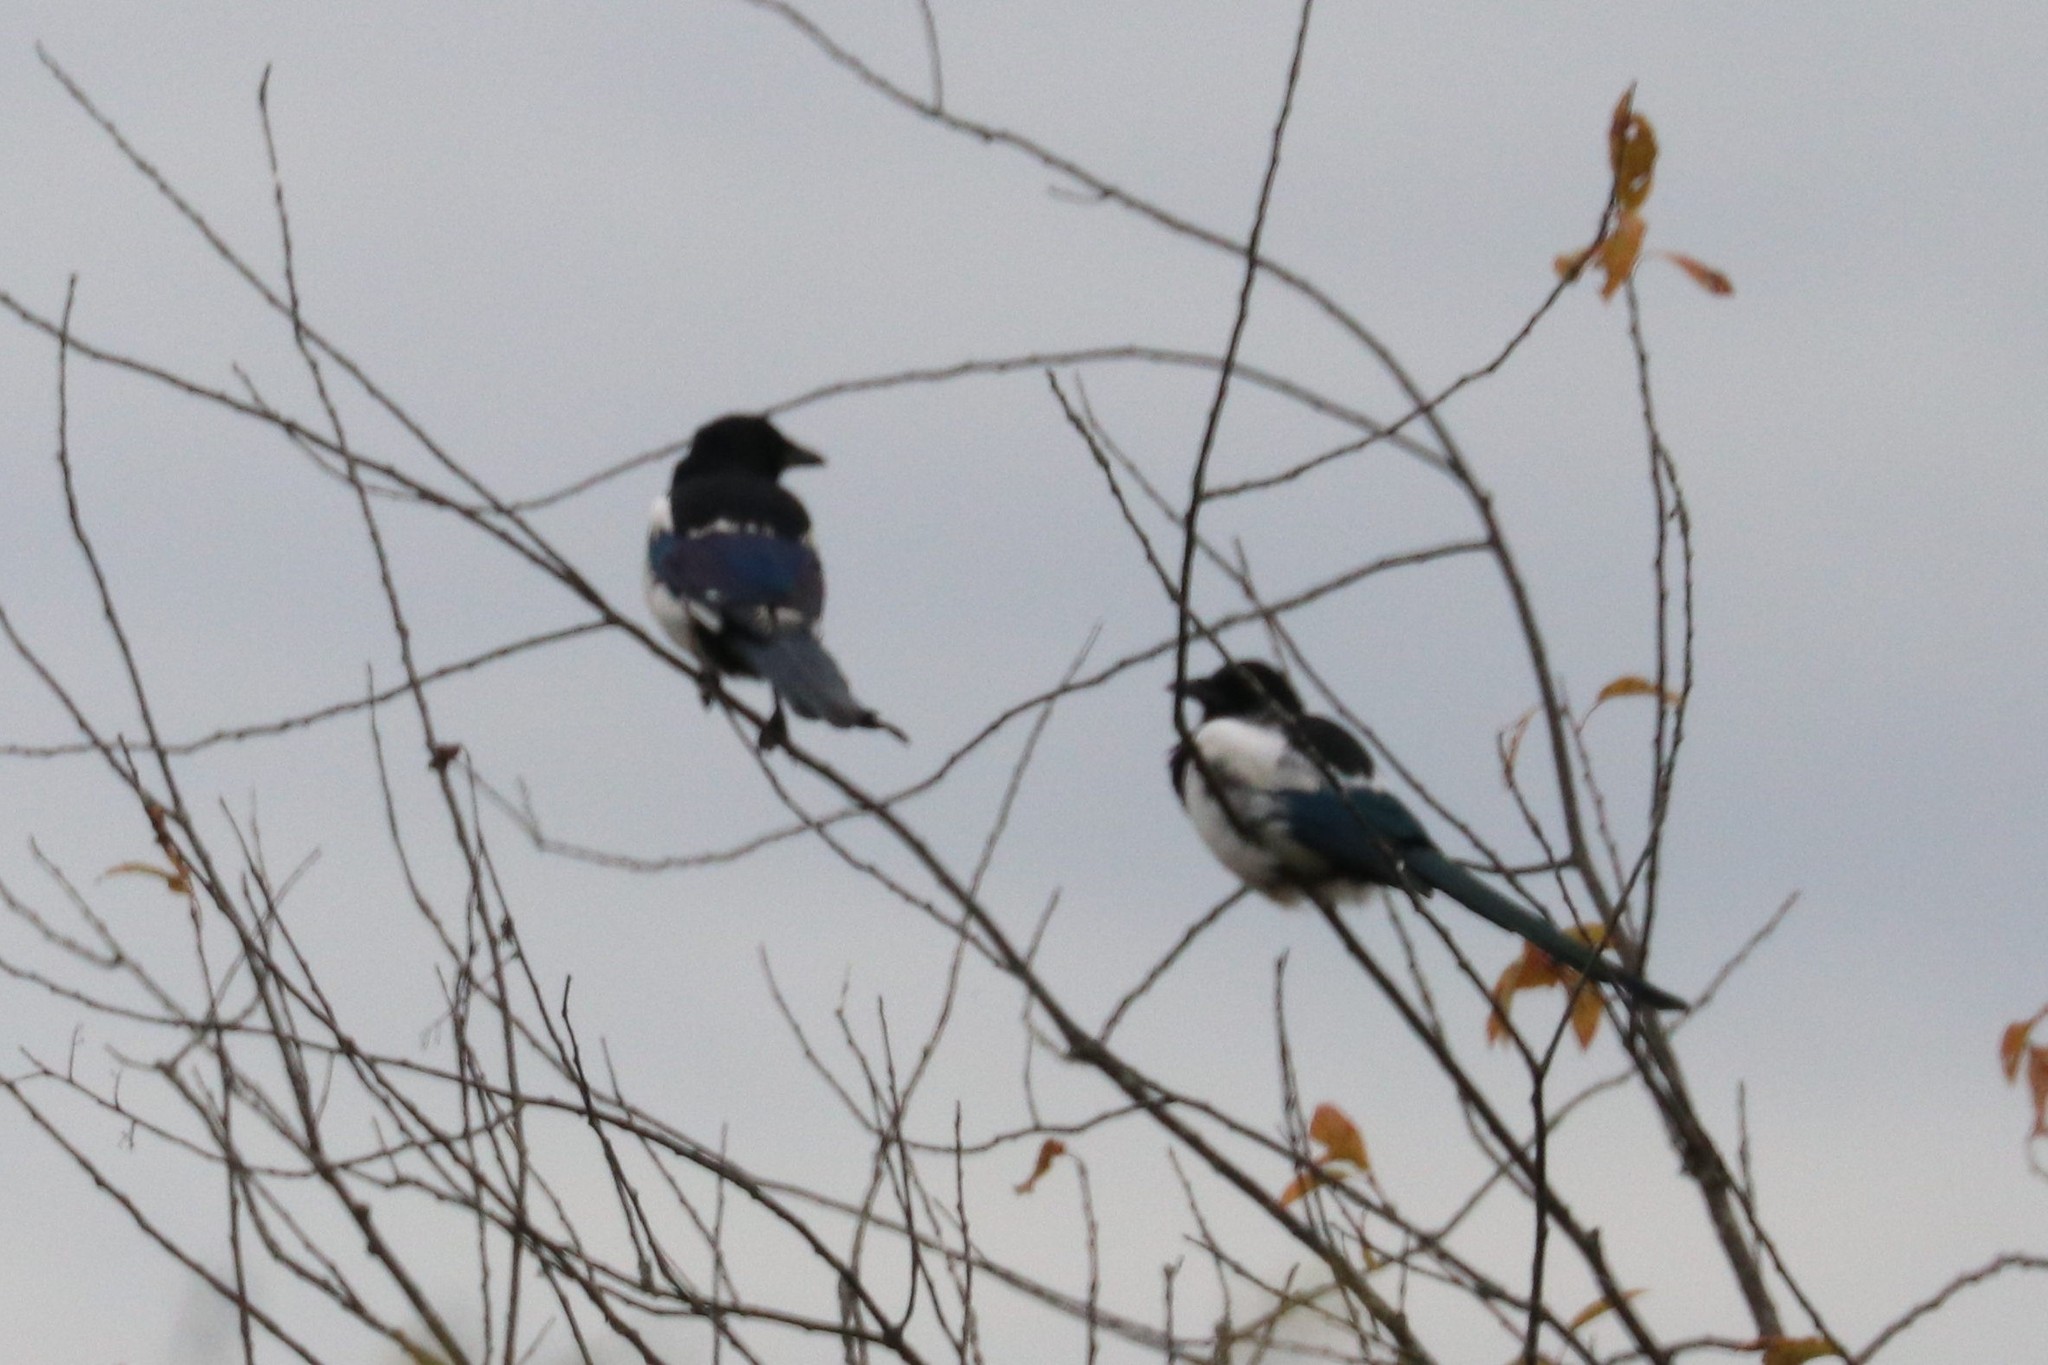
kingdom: Animalia
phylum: Chordata
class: Aves
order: Passeriformes
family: Corvidae
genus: Pica
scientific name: Pica pica
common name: Eurasian magpie
